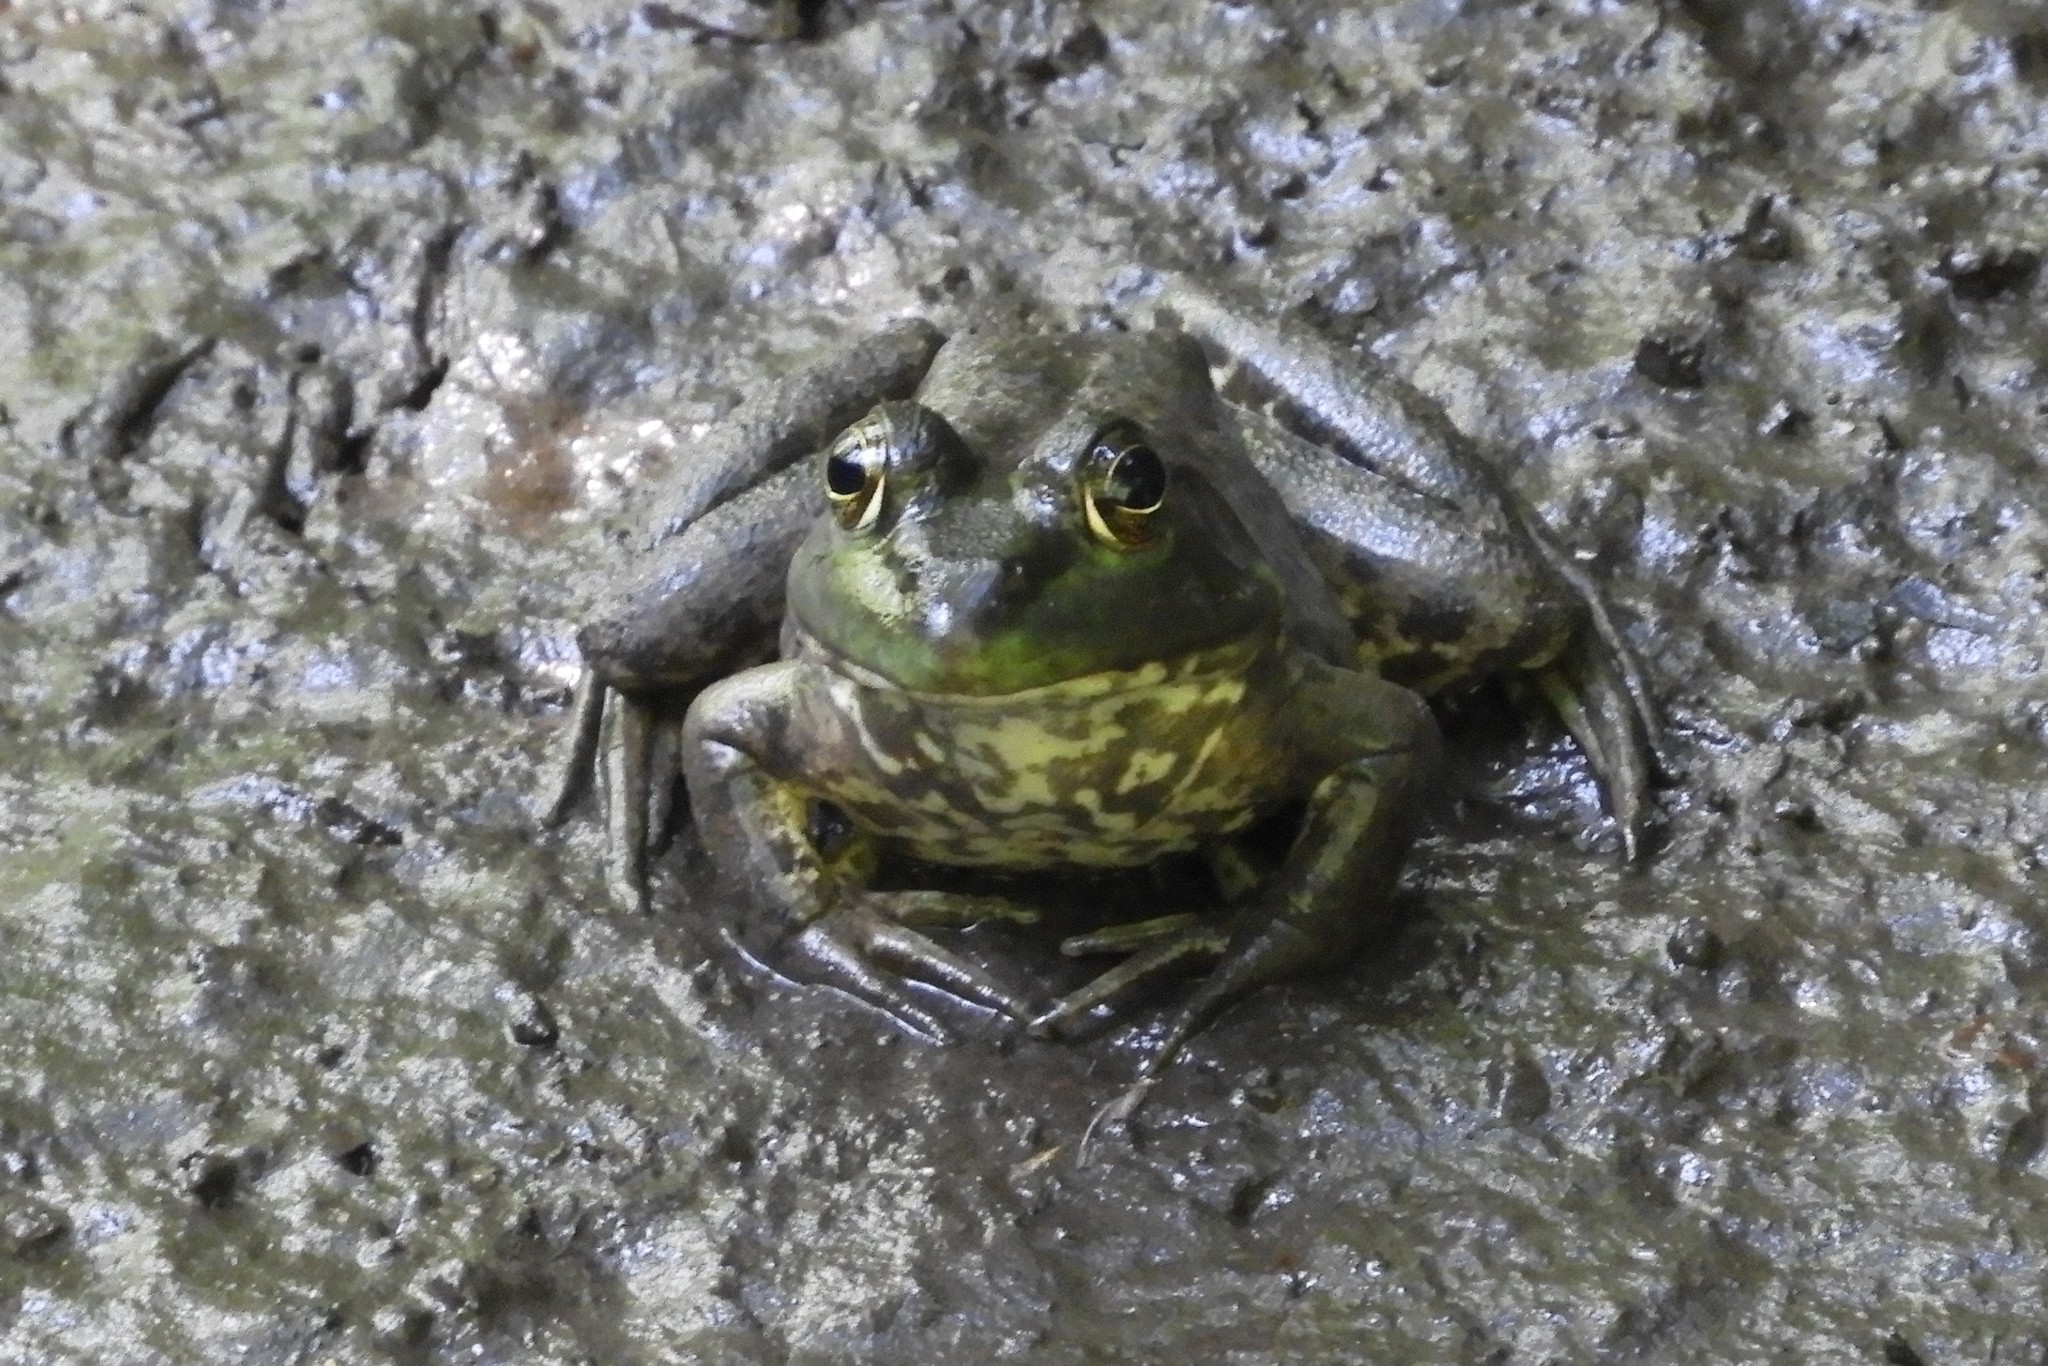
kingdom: Animalia
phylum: Chordata
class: Amphibia
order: Anura
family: Ranidae
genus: Lithobates
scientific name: Lithobates catesbeianus
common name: American bullfrog
